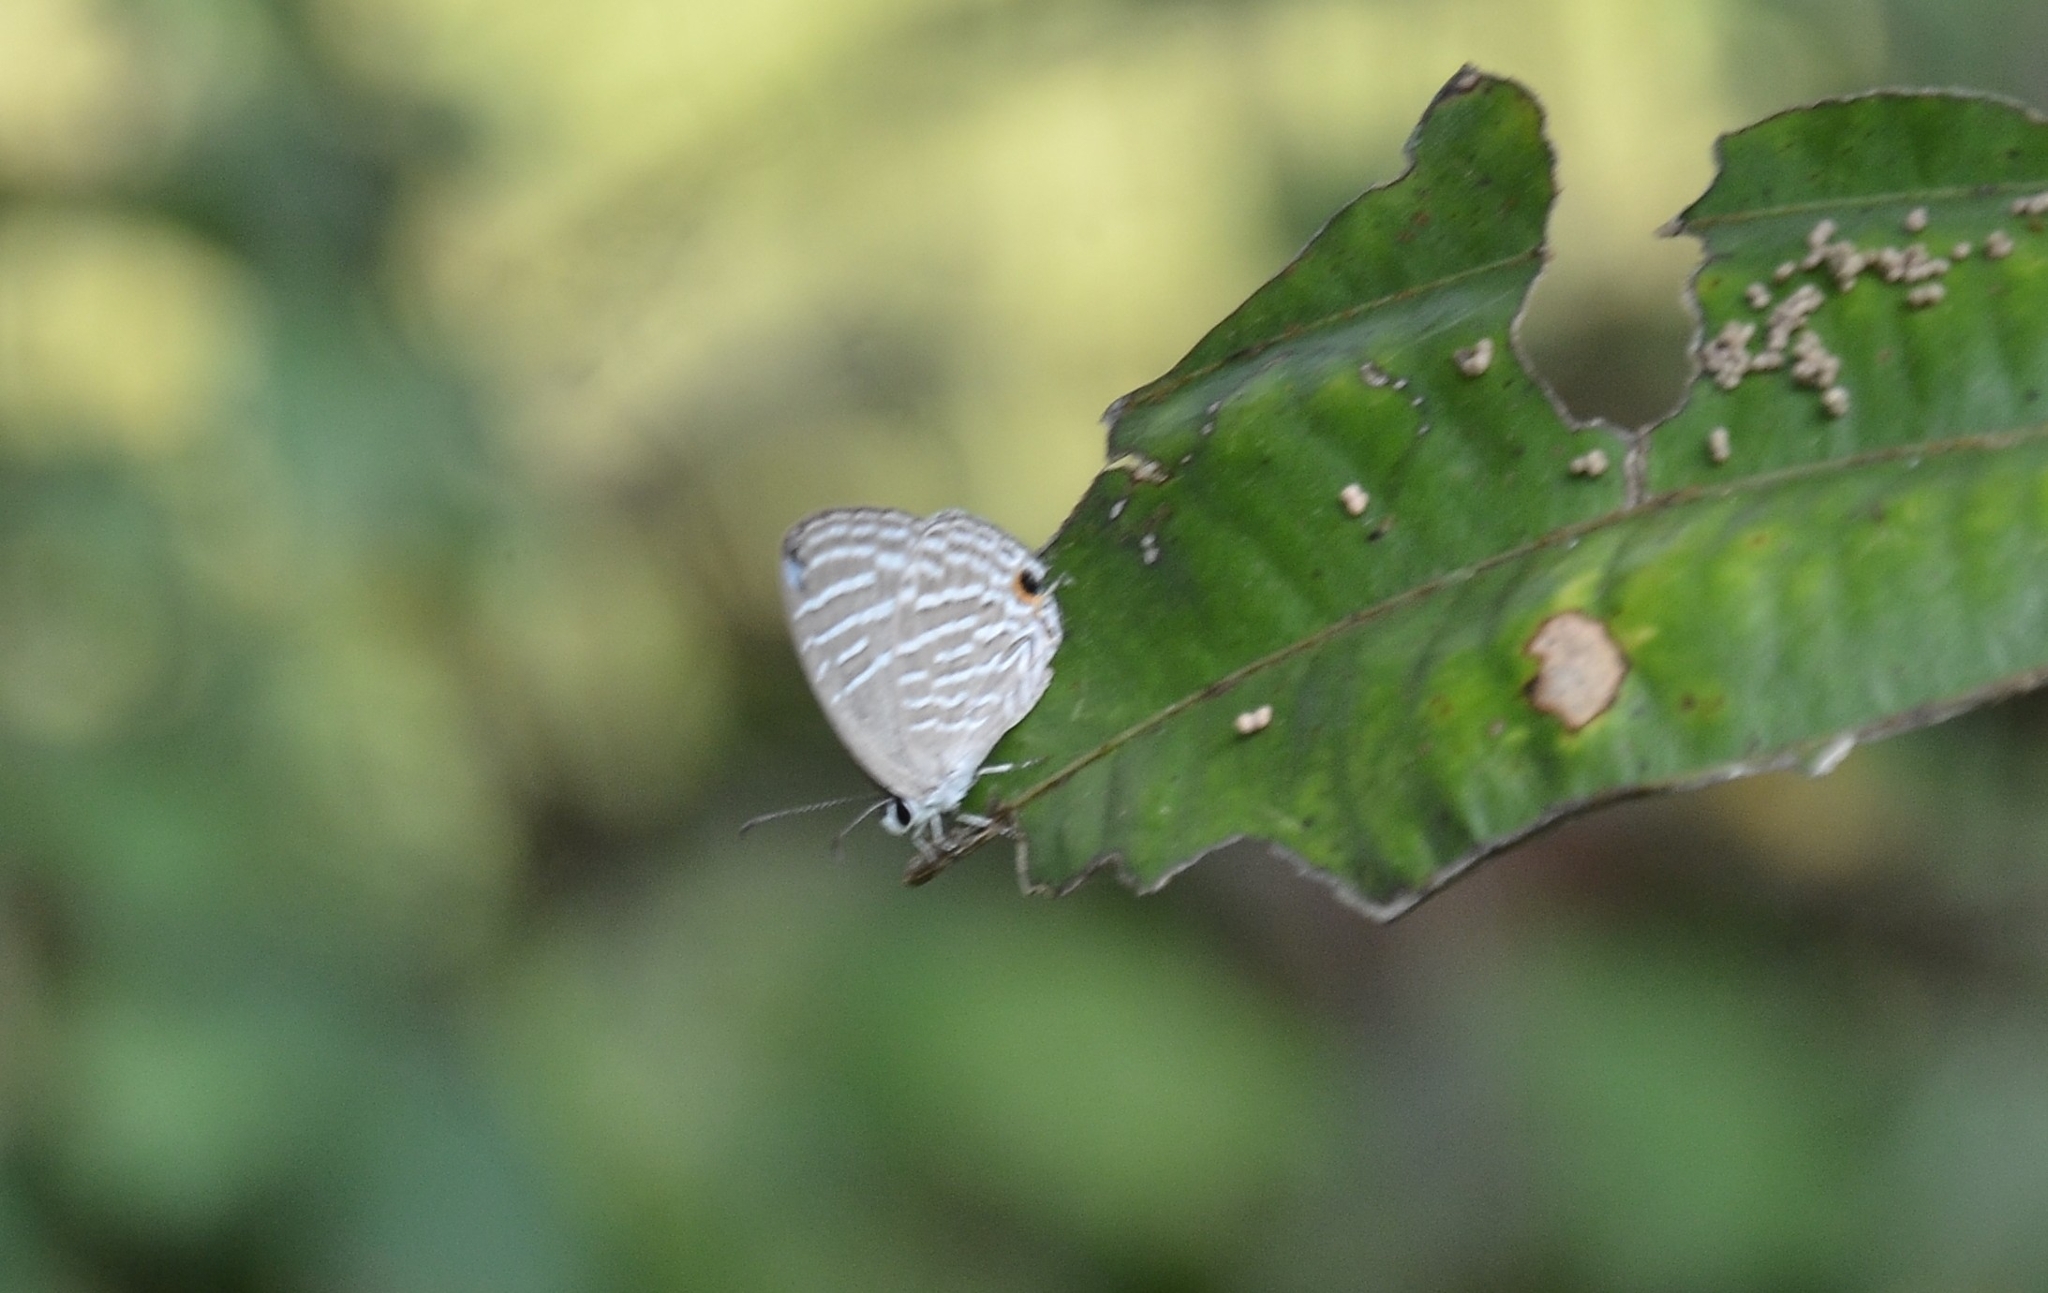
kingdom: Animalia
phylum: Arthropoda
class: Insecta
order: Lepidoptera
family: Lycaenidae
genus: Jamides
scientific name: Jamides celeno
